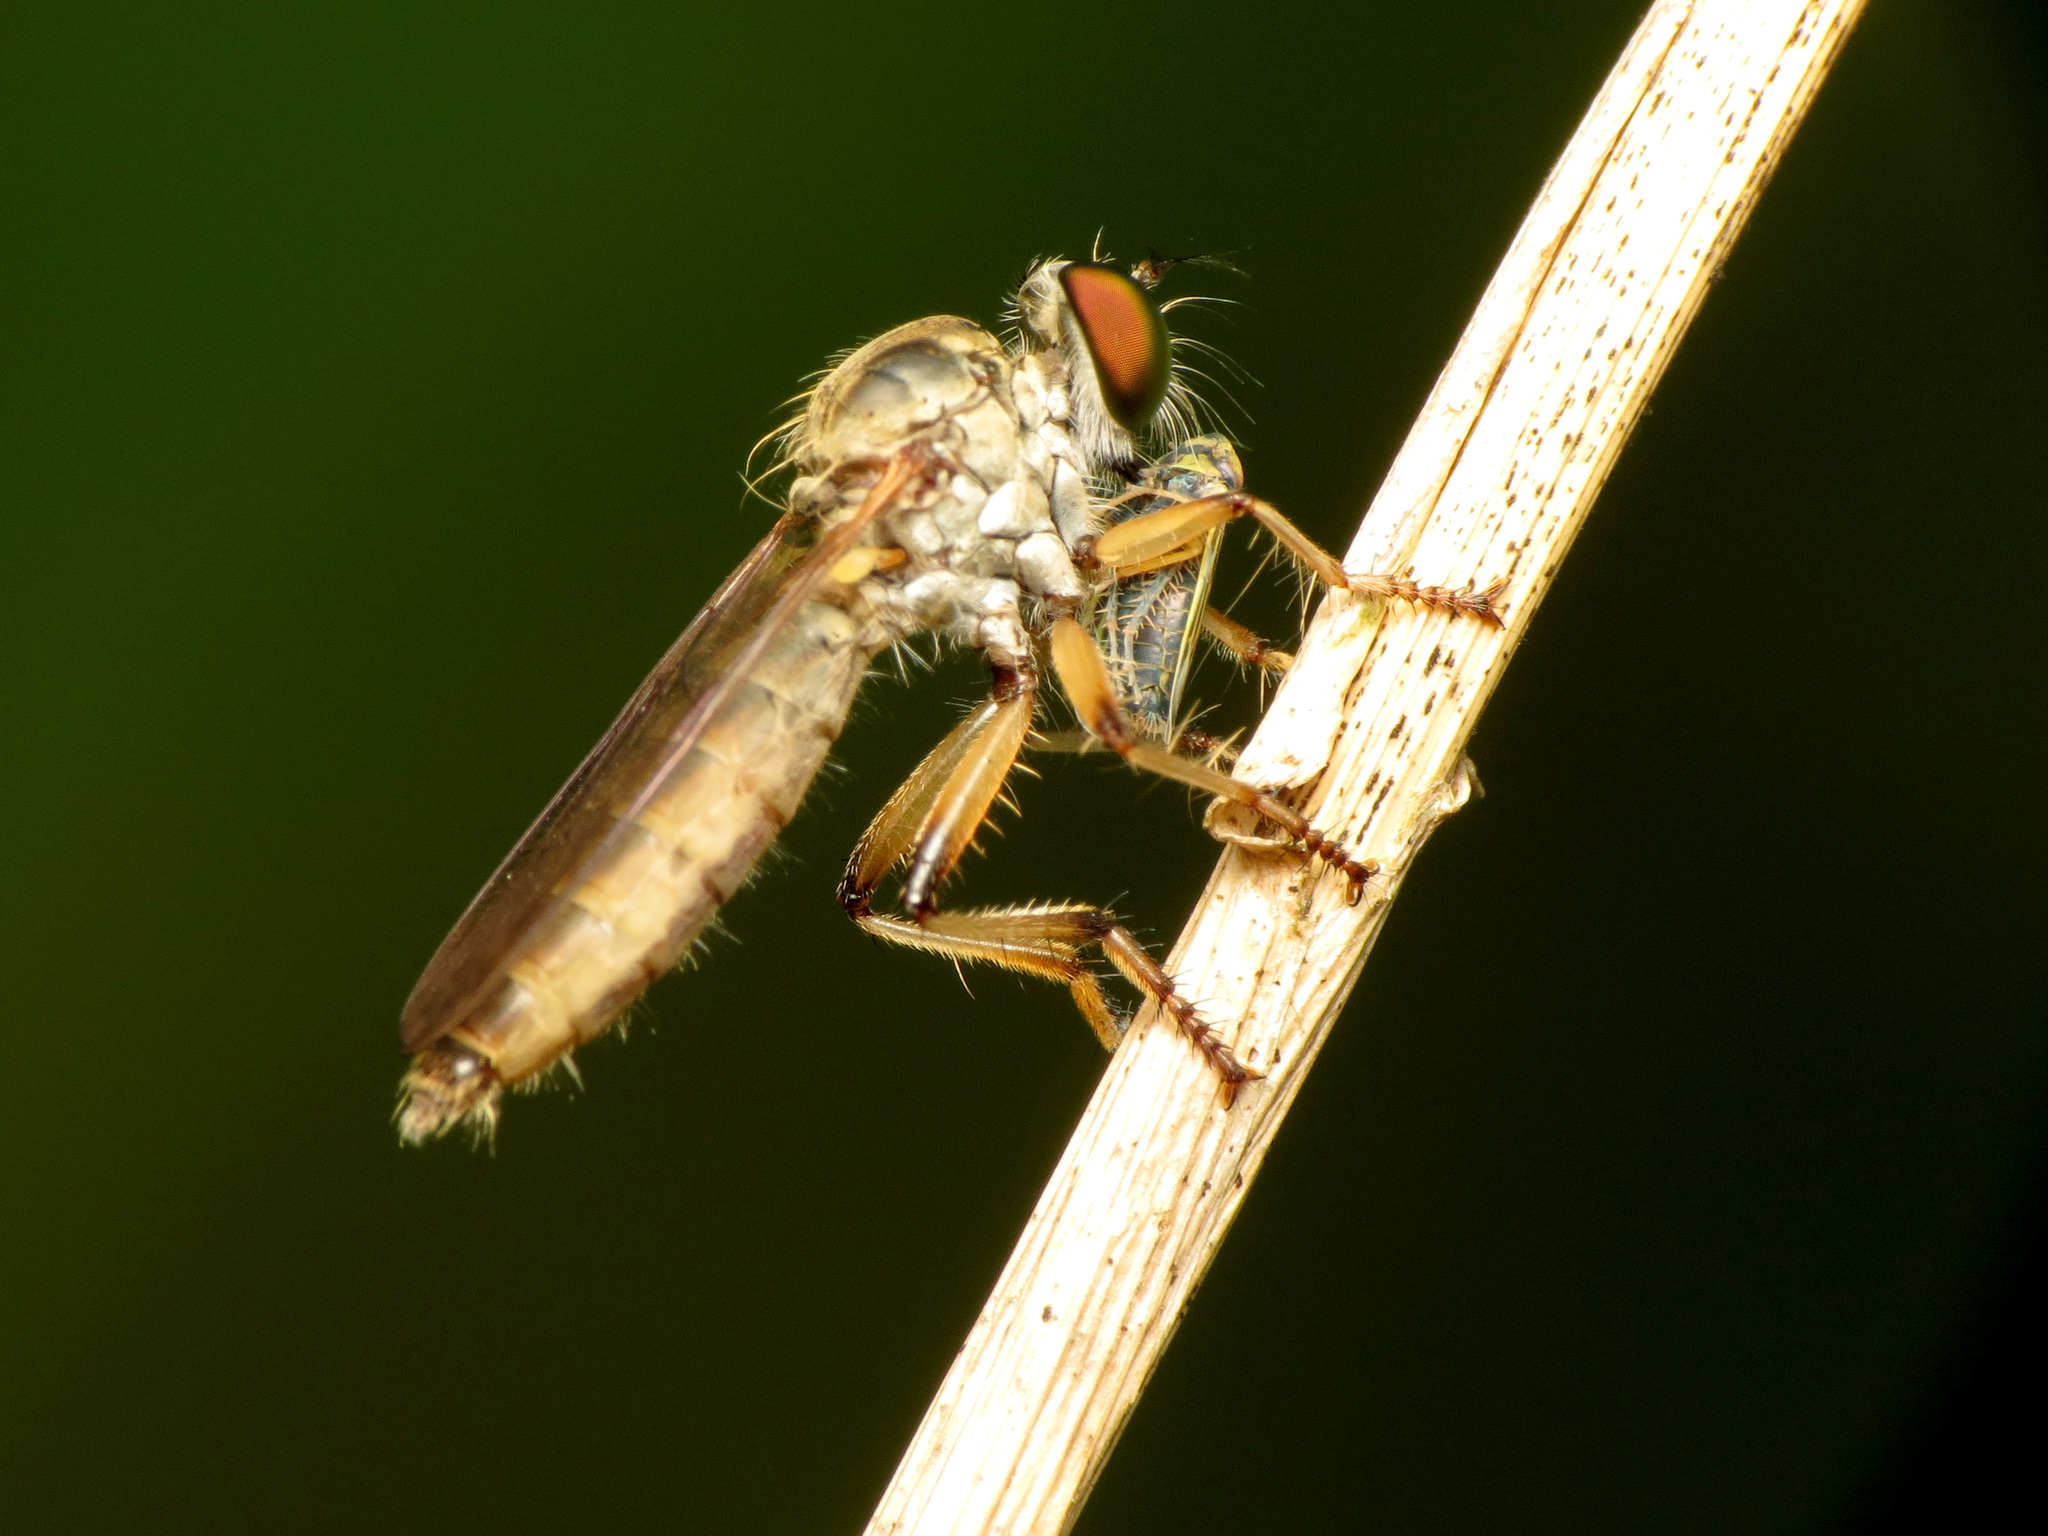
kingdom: Animalia
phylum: Arthropoda
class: Insecta
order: Hemiptera
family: Cicadellidae
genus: Amblysellus
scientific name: Amblysellus curtisii
